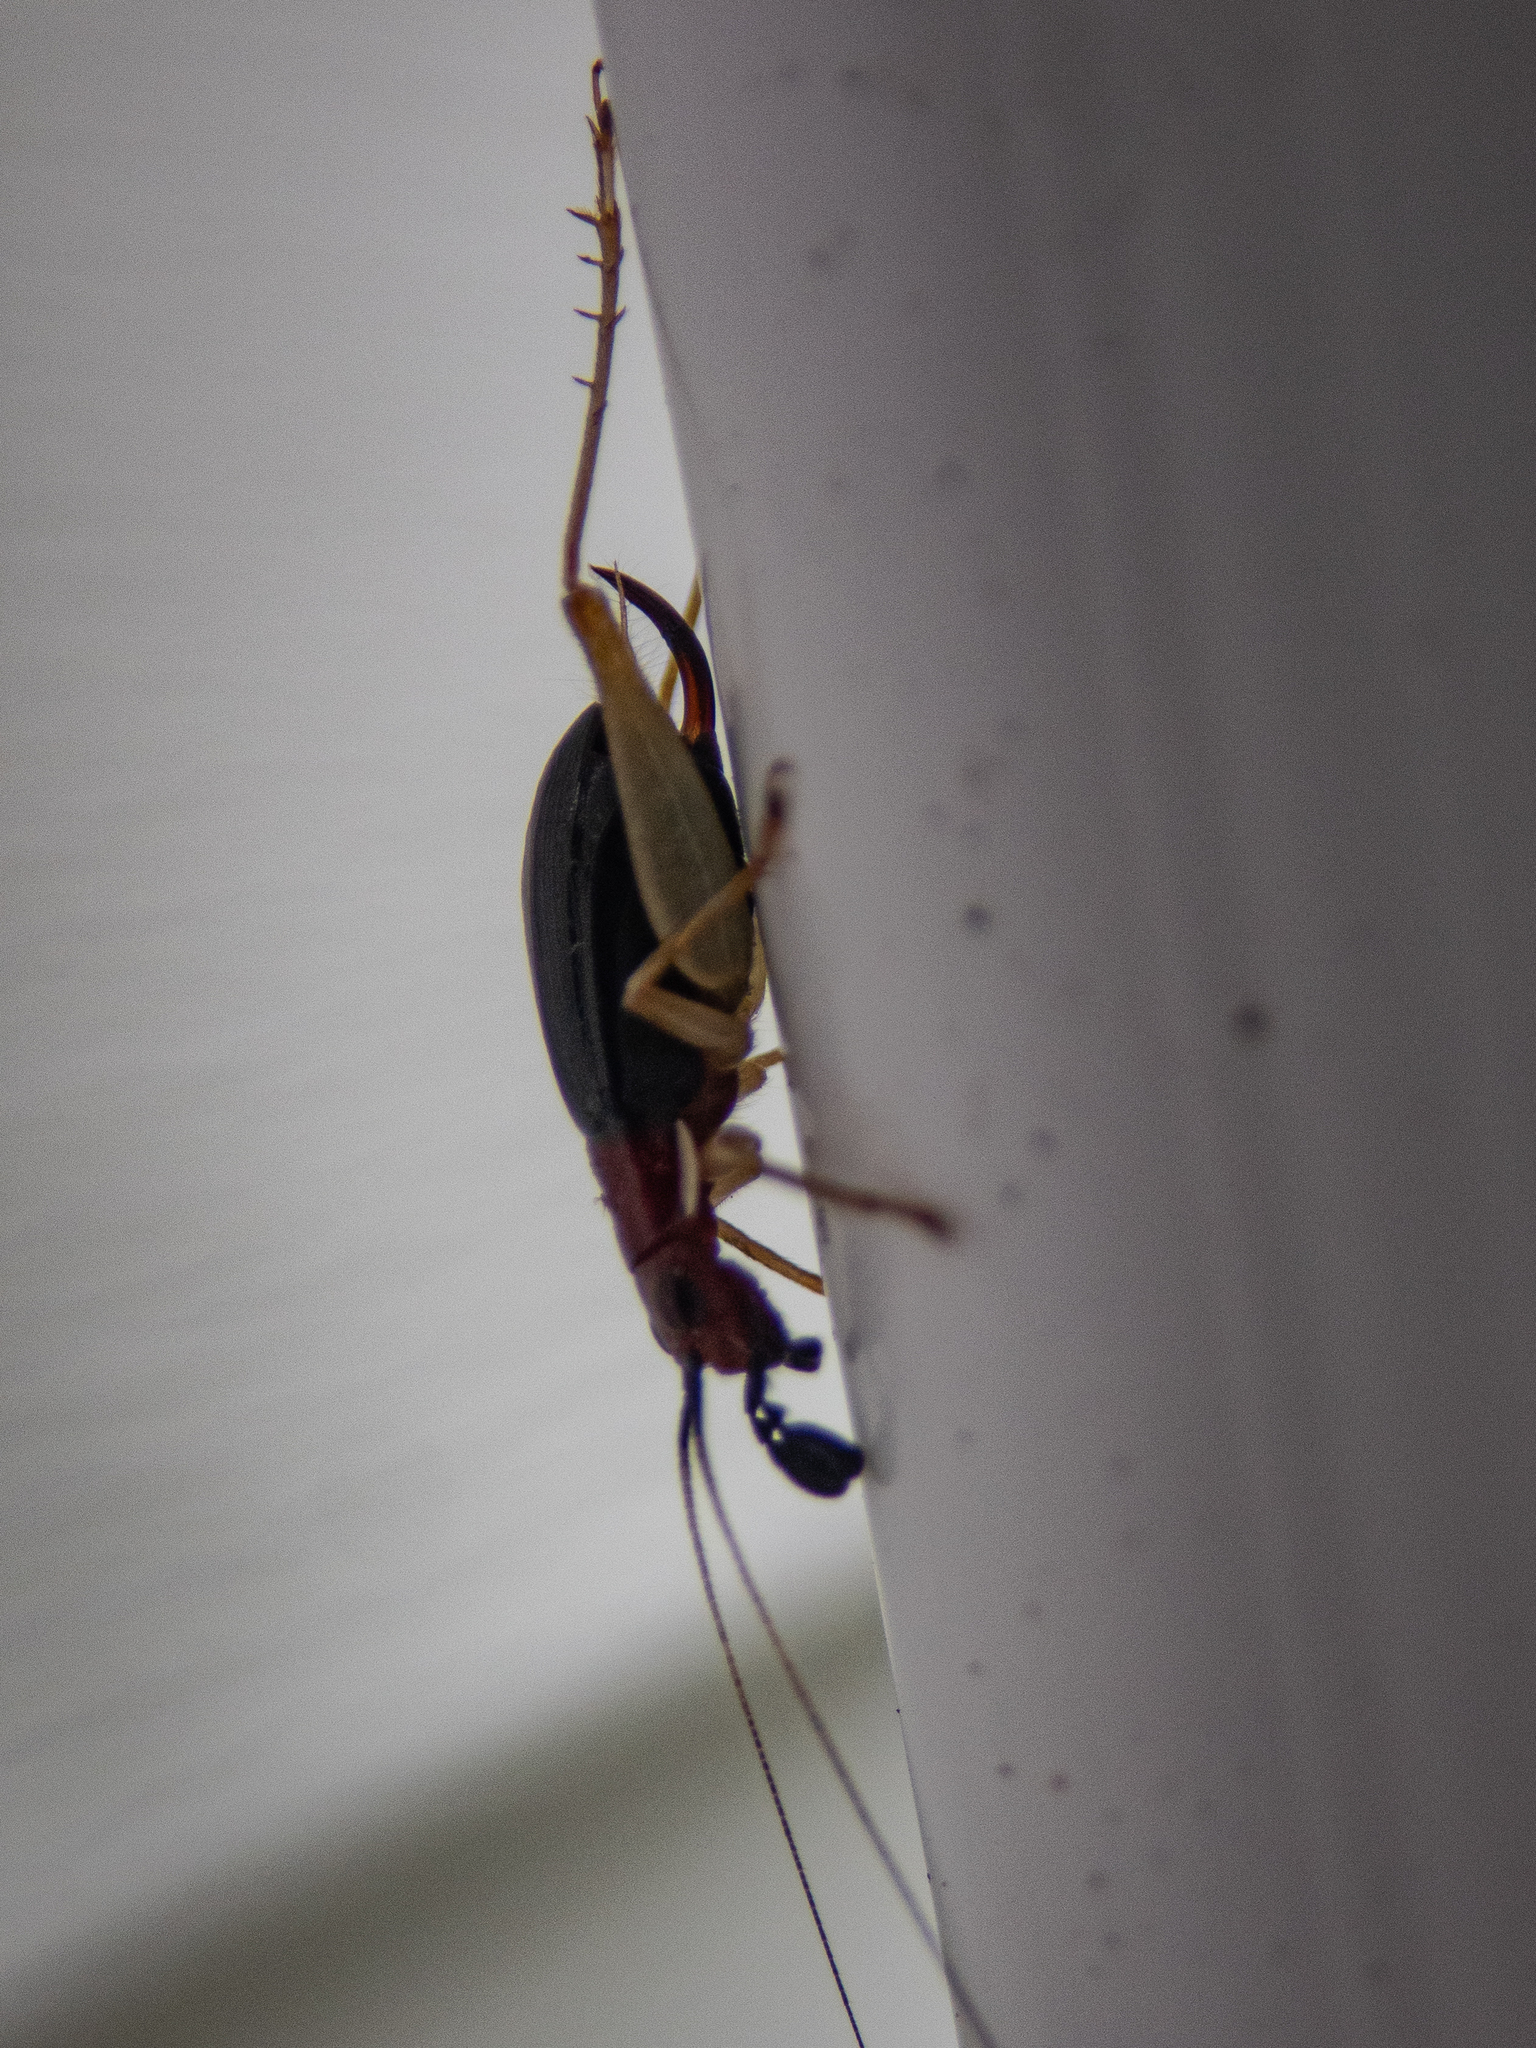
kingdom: Animalia
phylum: Arthropoda
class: Insecta
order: Orthoptera
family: Trigonidiidae
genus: Phyllopalpus
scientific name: Phyllopalpus pulchellus
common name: Handsome trig
